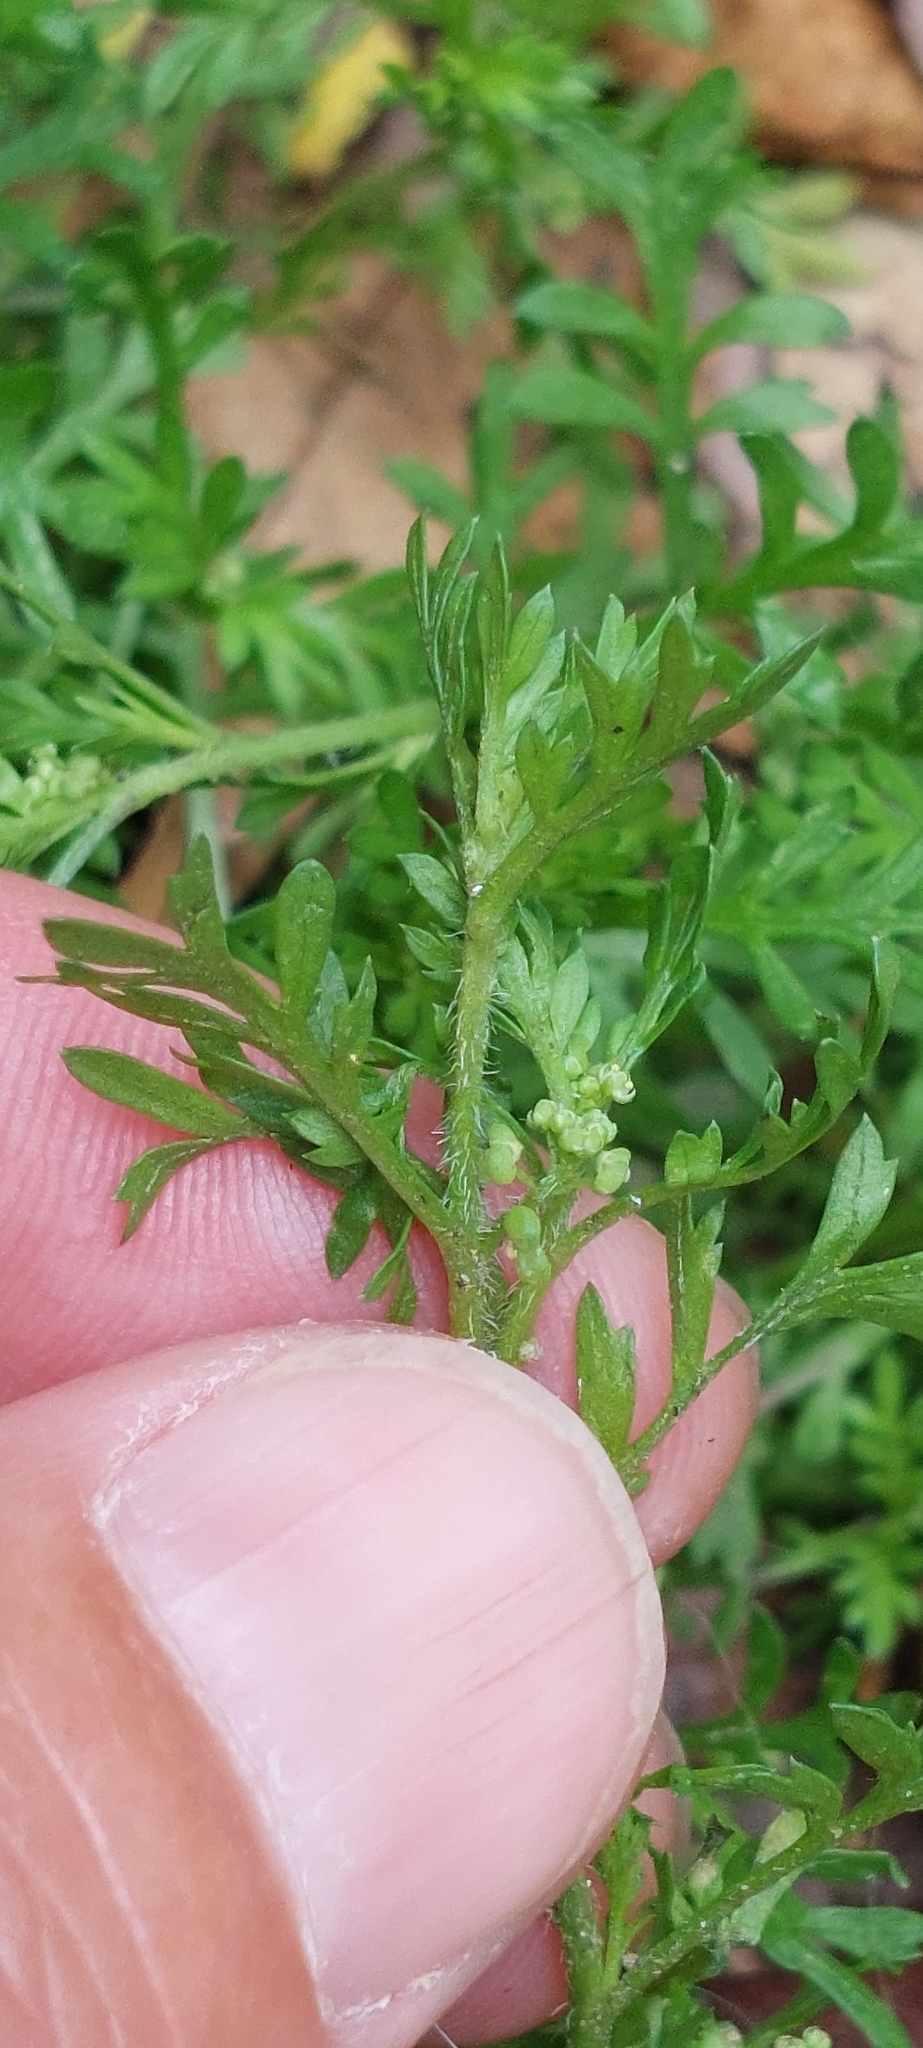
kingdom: Plantae
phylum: Tracheophyta
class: Magnoliopsida
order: Brassicales
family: Brassicaceae
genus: Lepidium
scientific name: Lepidium didymum
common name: Lesser swinecress
